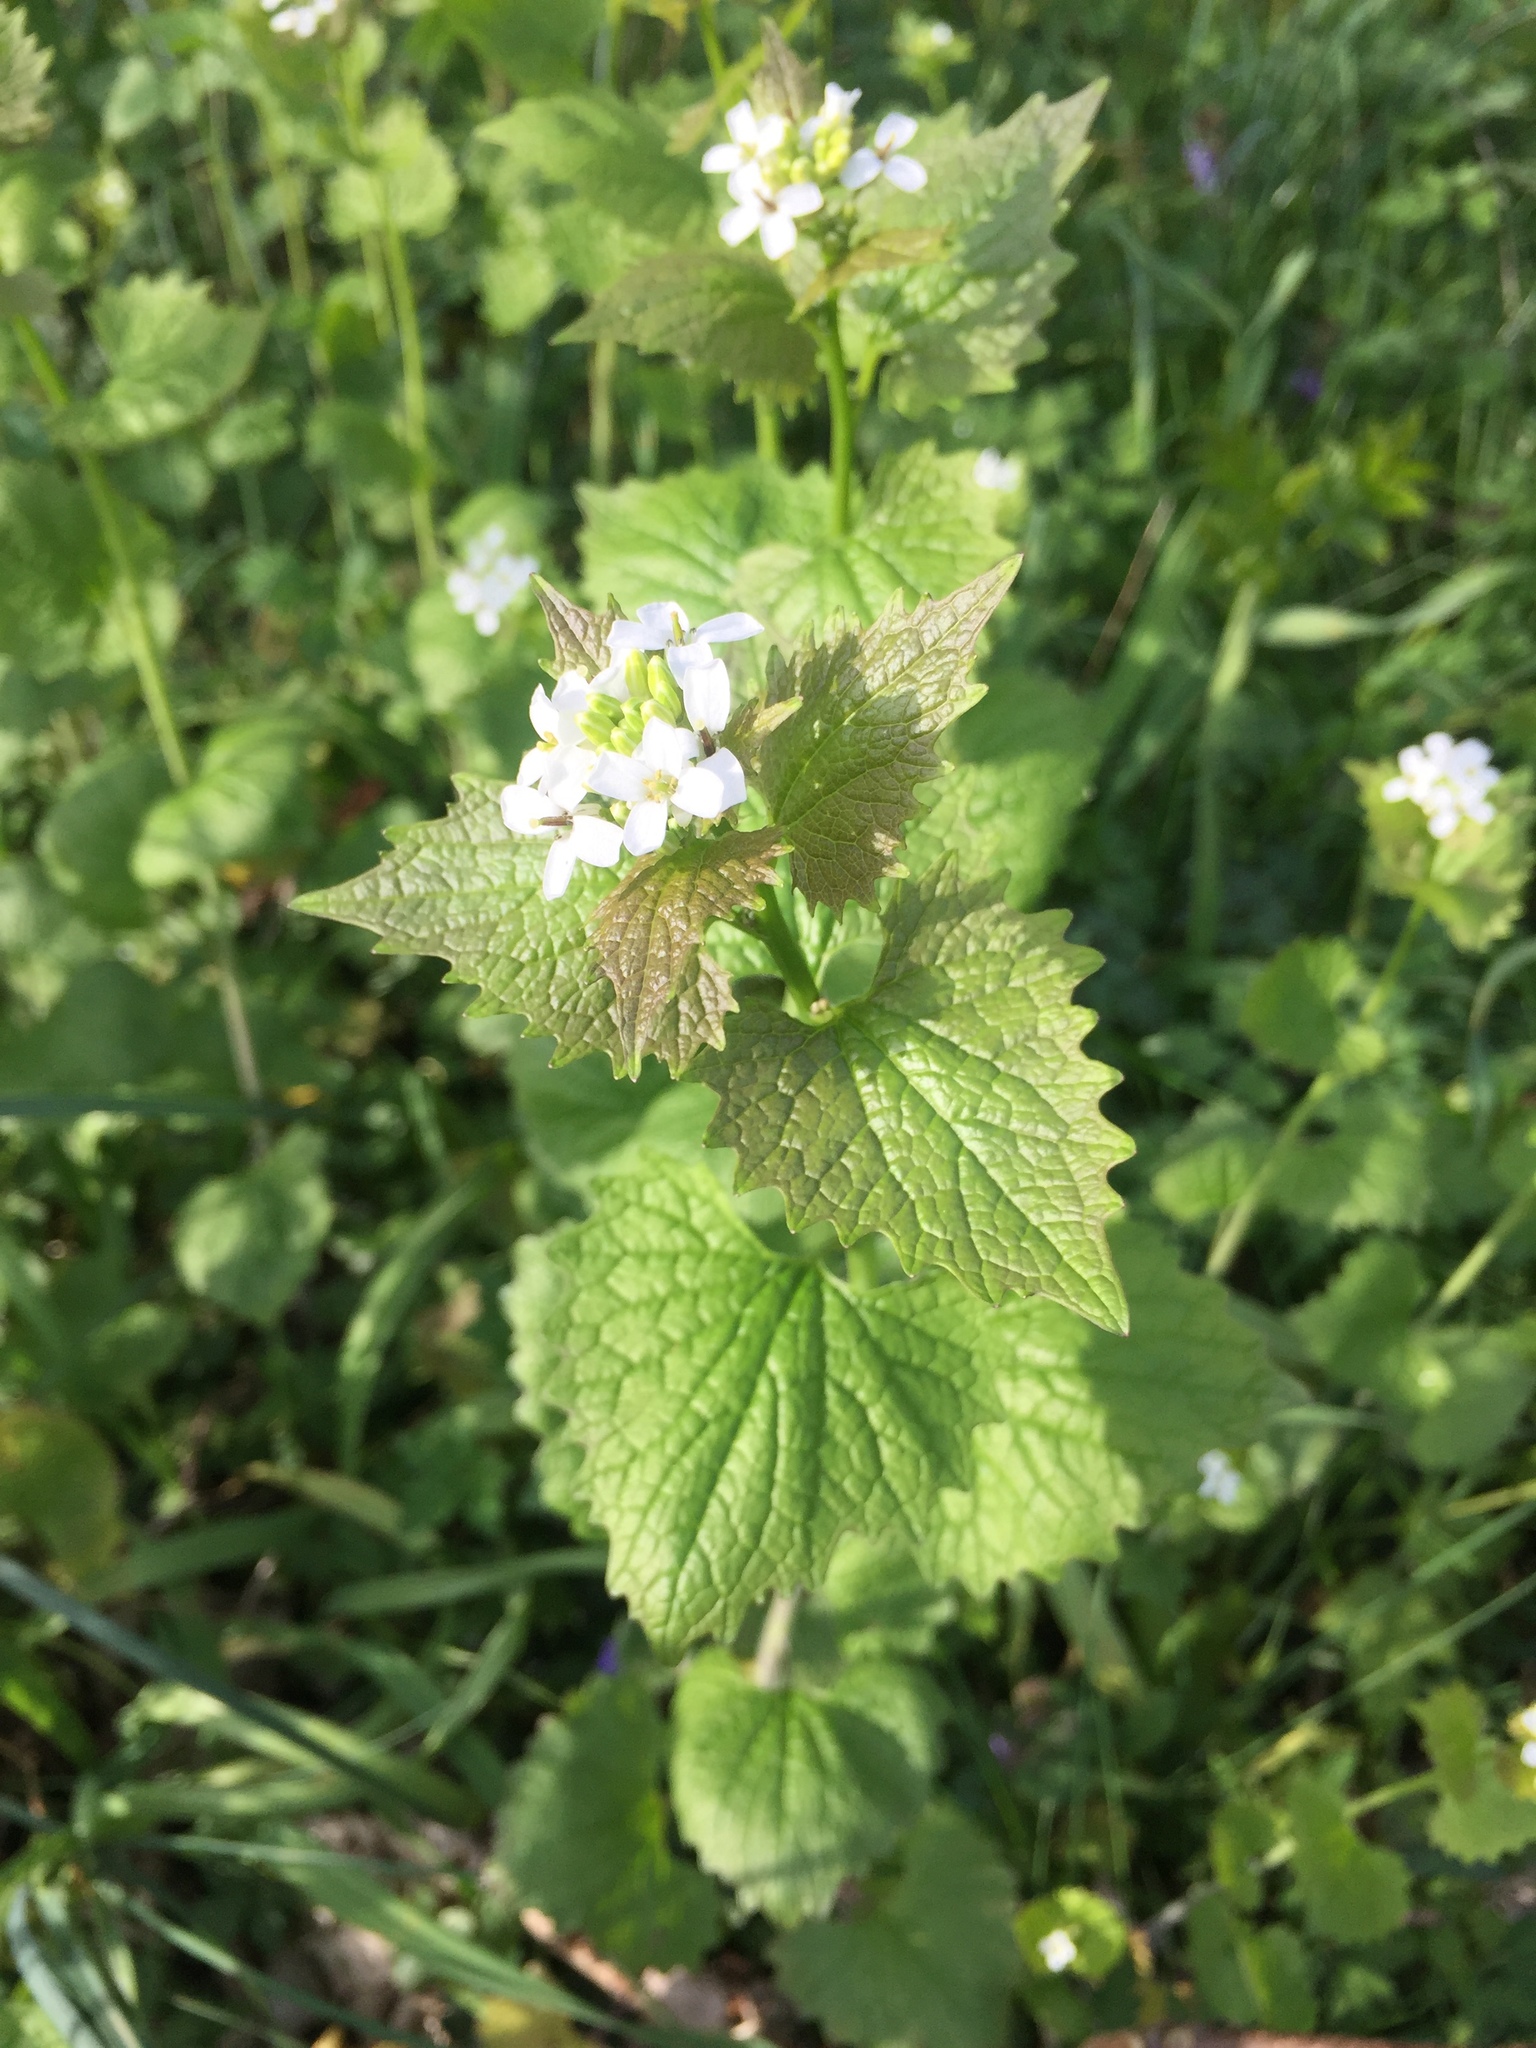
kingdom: Plantae
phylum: Tracheophyta
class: Magnoliopsida
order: Brassicales
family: Brassicaceae
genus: Alliaria
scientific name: Alliaria petiolata
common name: Garlic mustard
